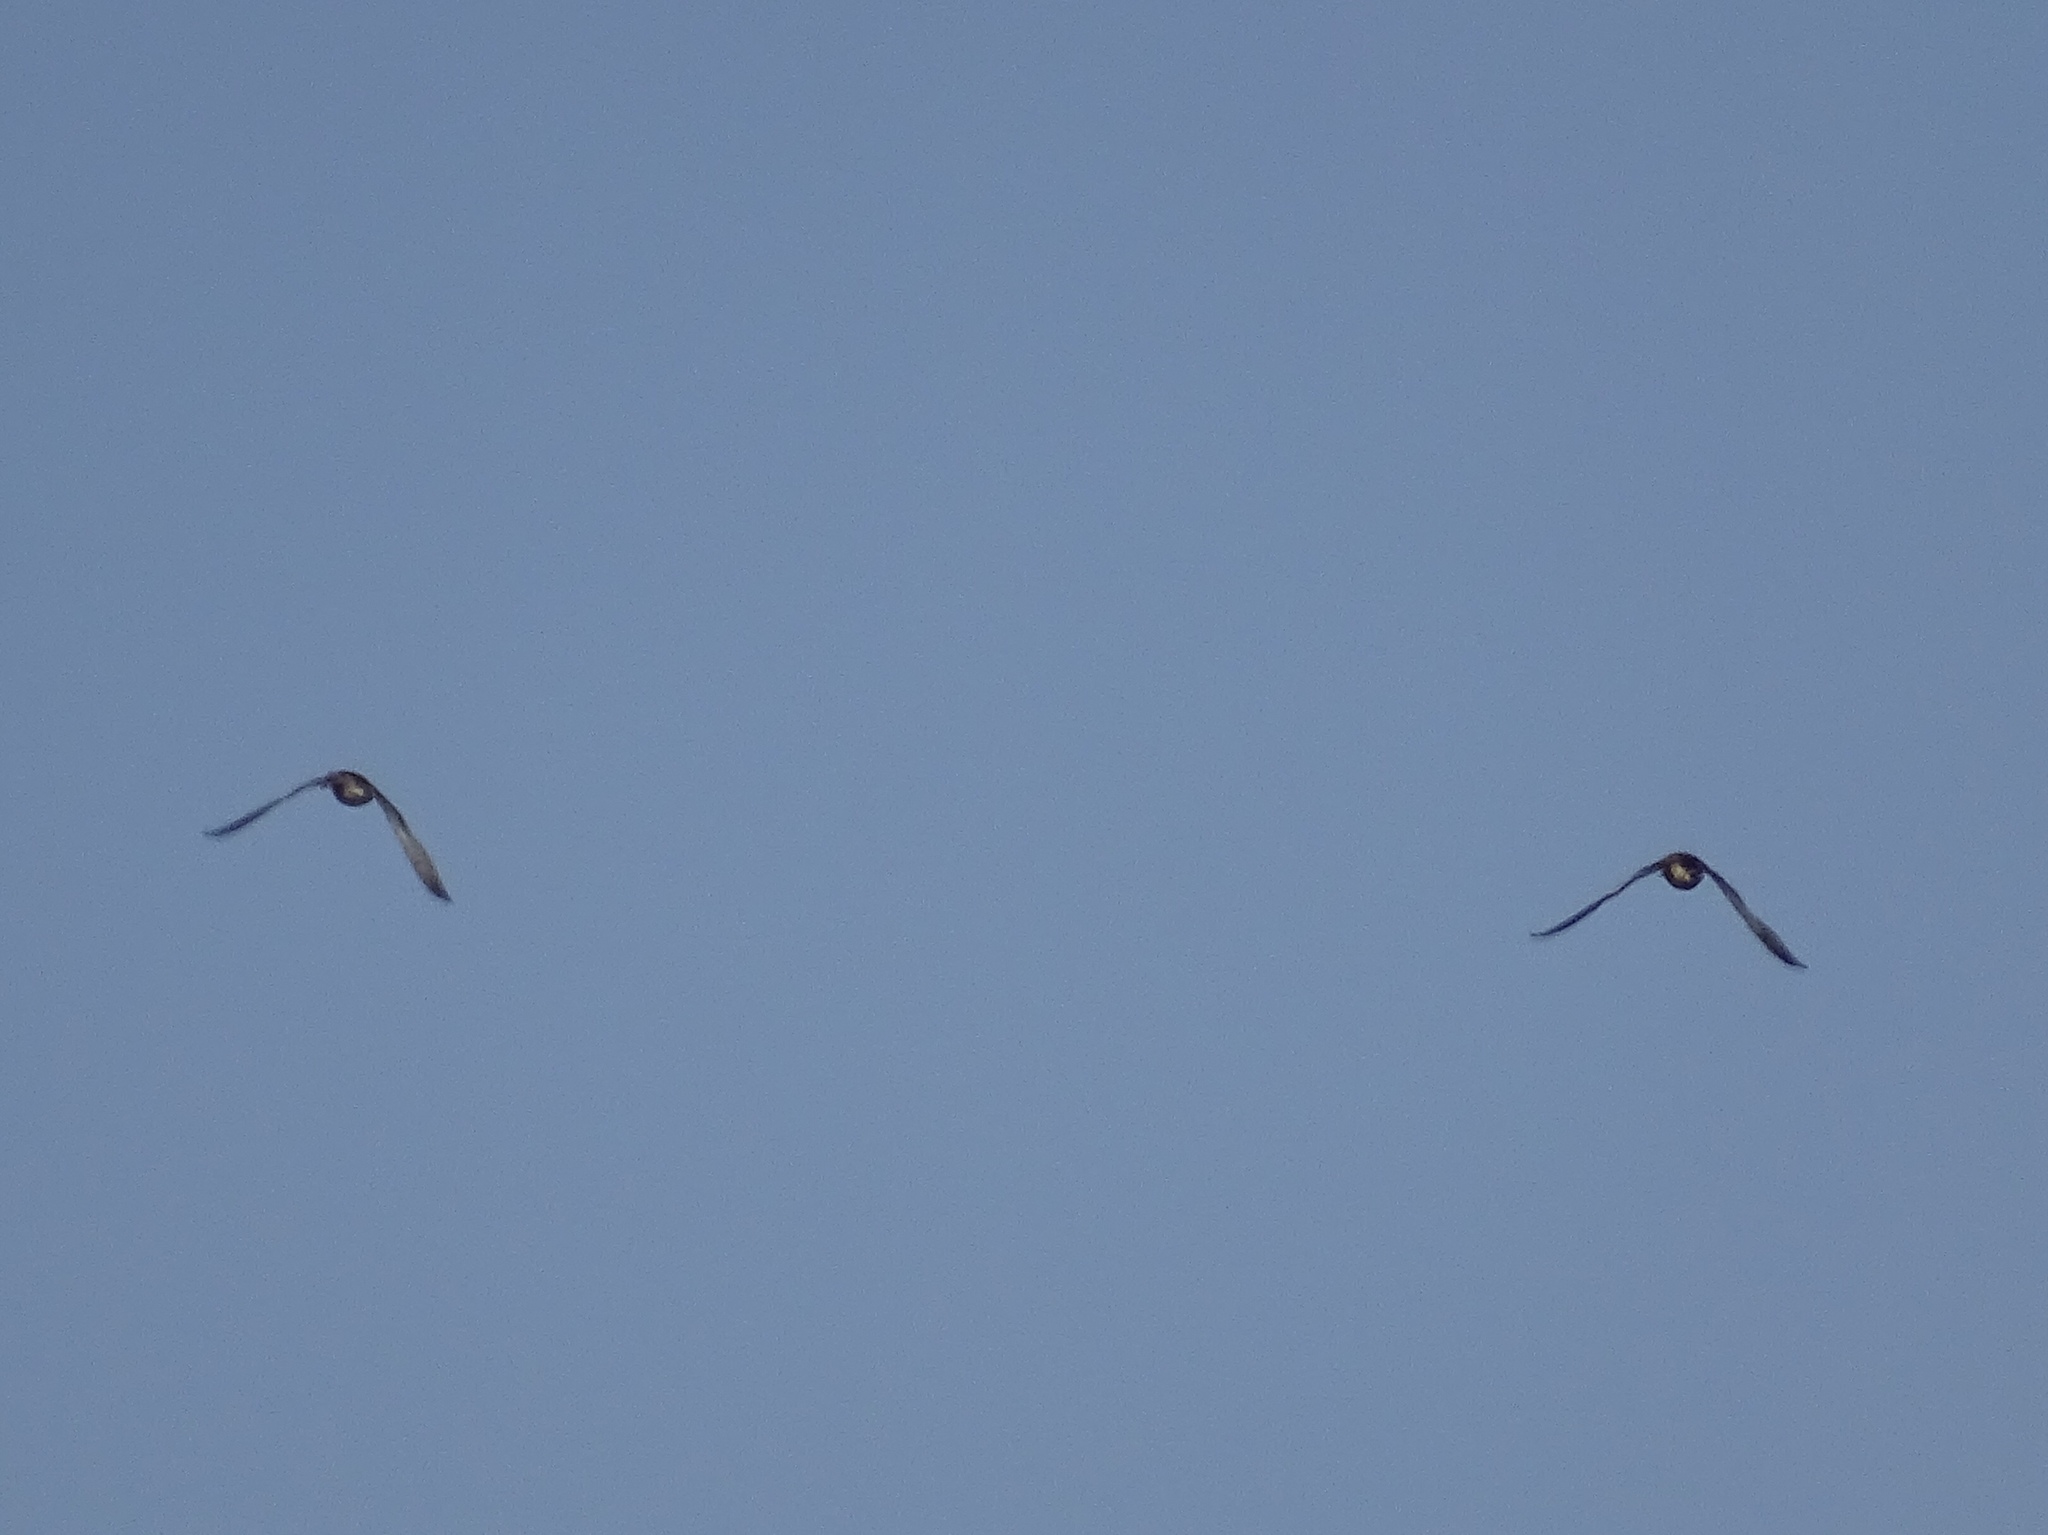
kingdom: Animalia
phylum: Chordata
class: Aves
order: Anseriformes
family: Anatidae
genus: Anas
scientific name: Anas platyrhynchos
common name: Mallard
